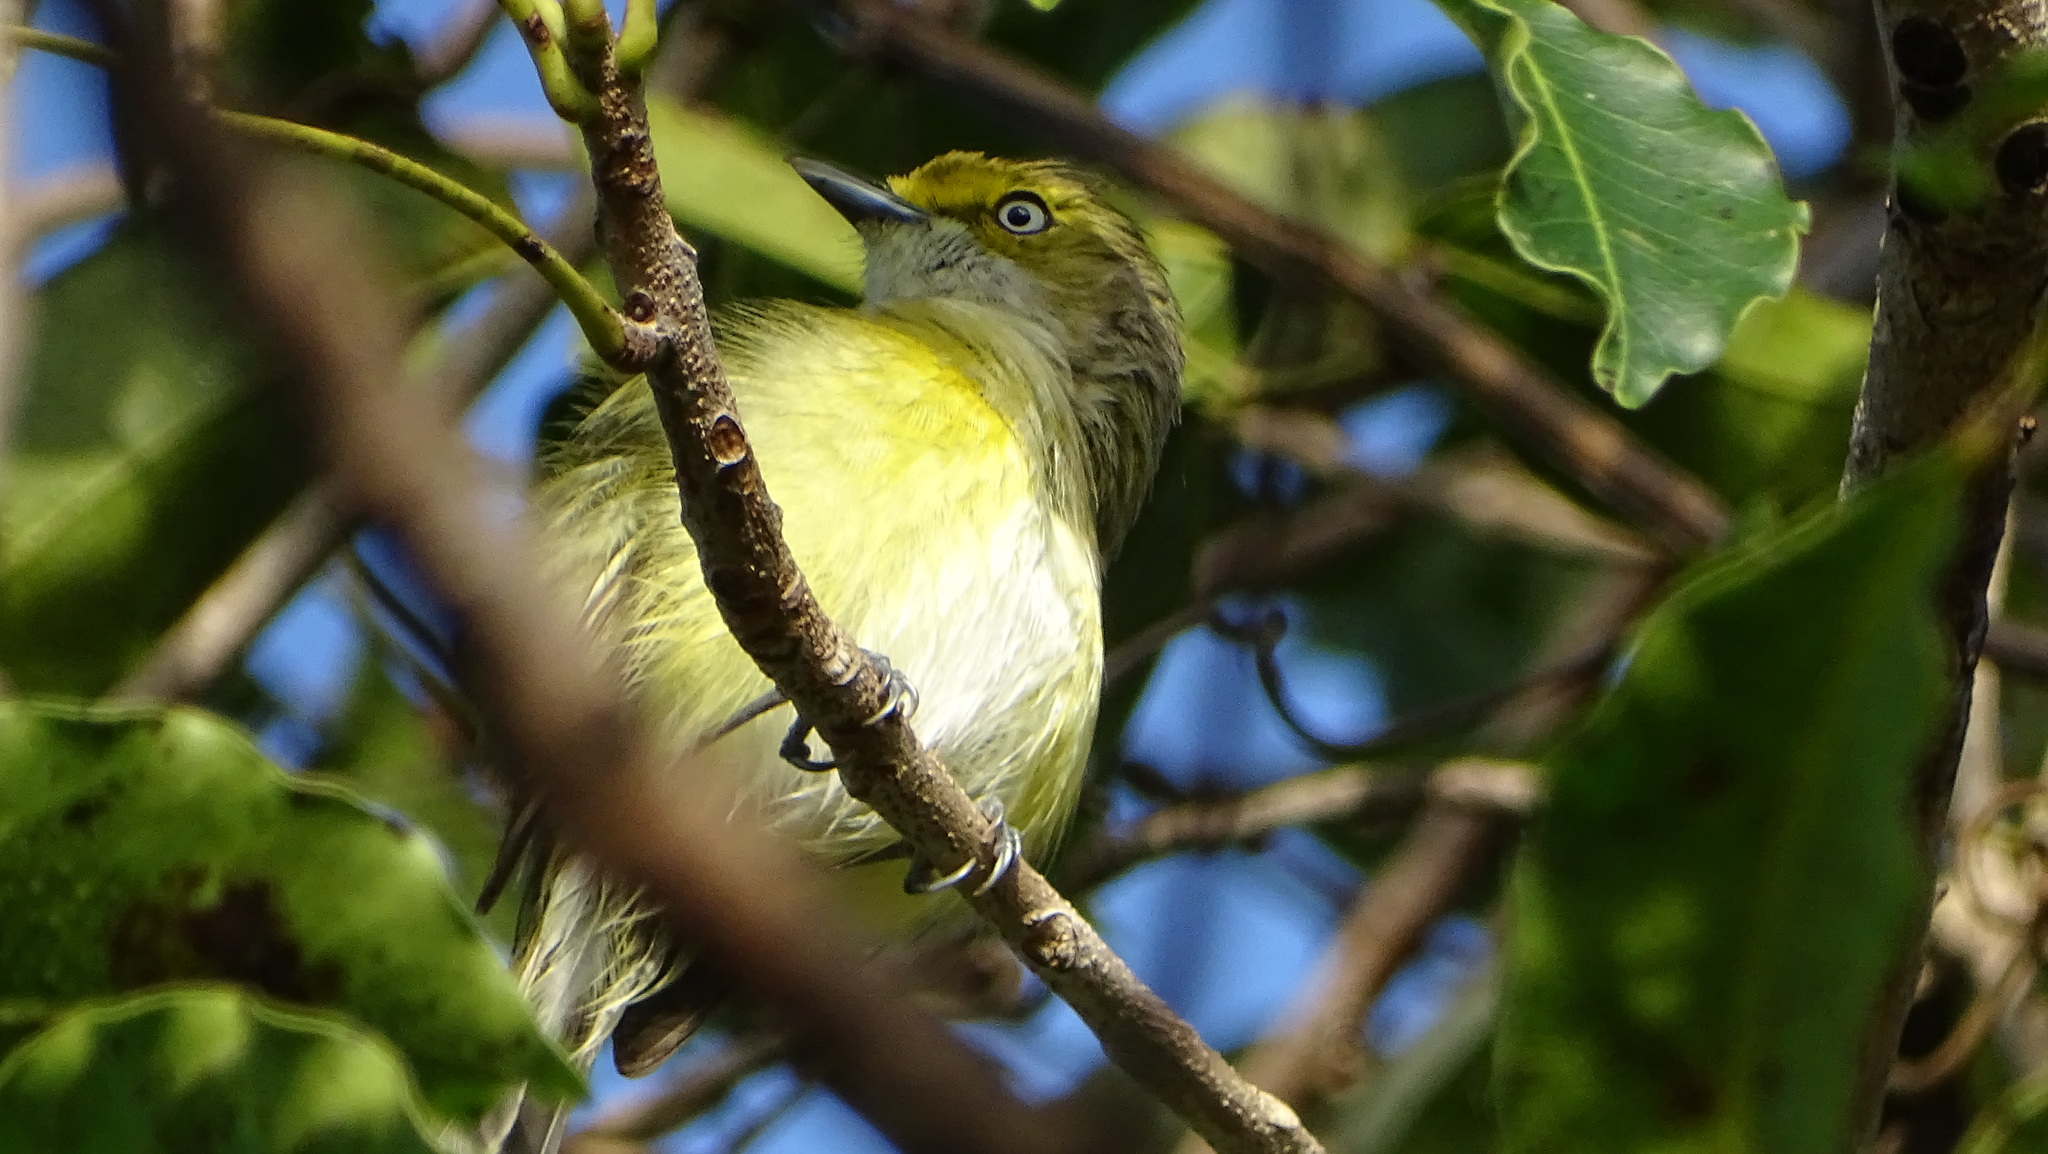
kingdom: Animalia
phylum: Chordata
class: Aves
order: Passeriformes
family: Vireonidae
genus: Vireo
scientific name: Vireo griseus
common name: White-eyed vireo
